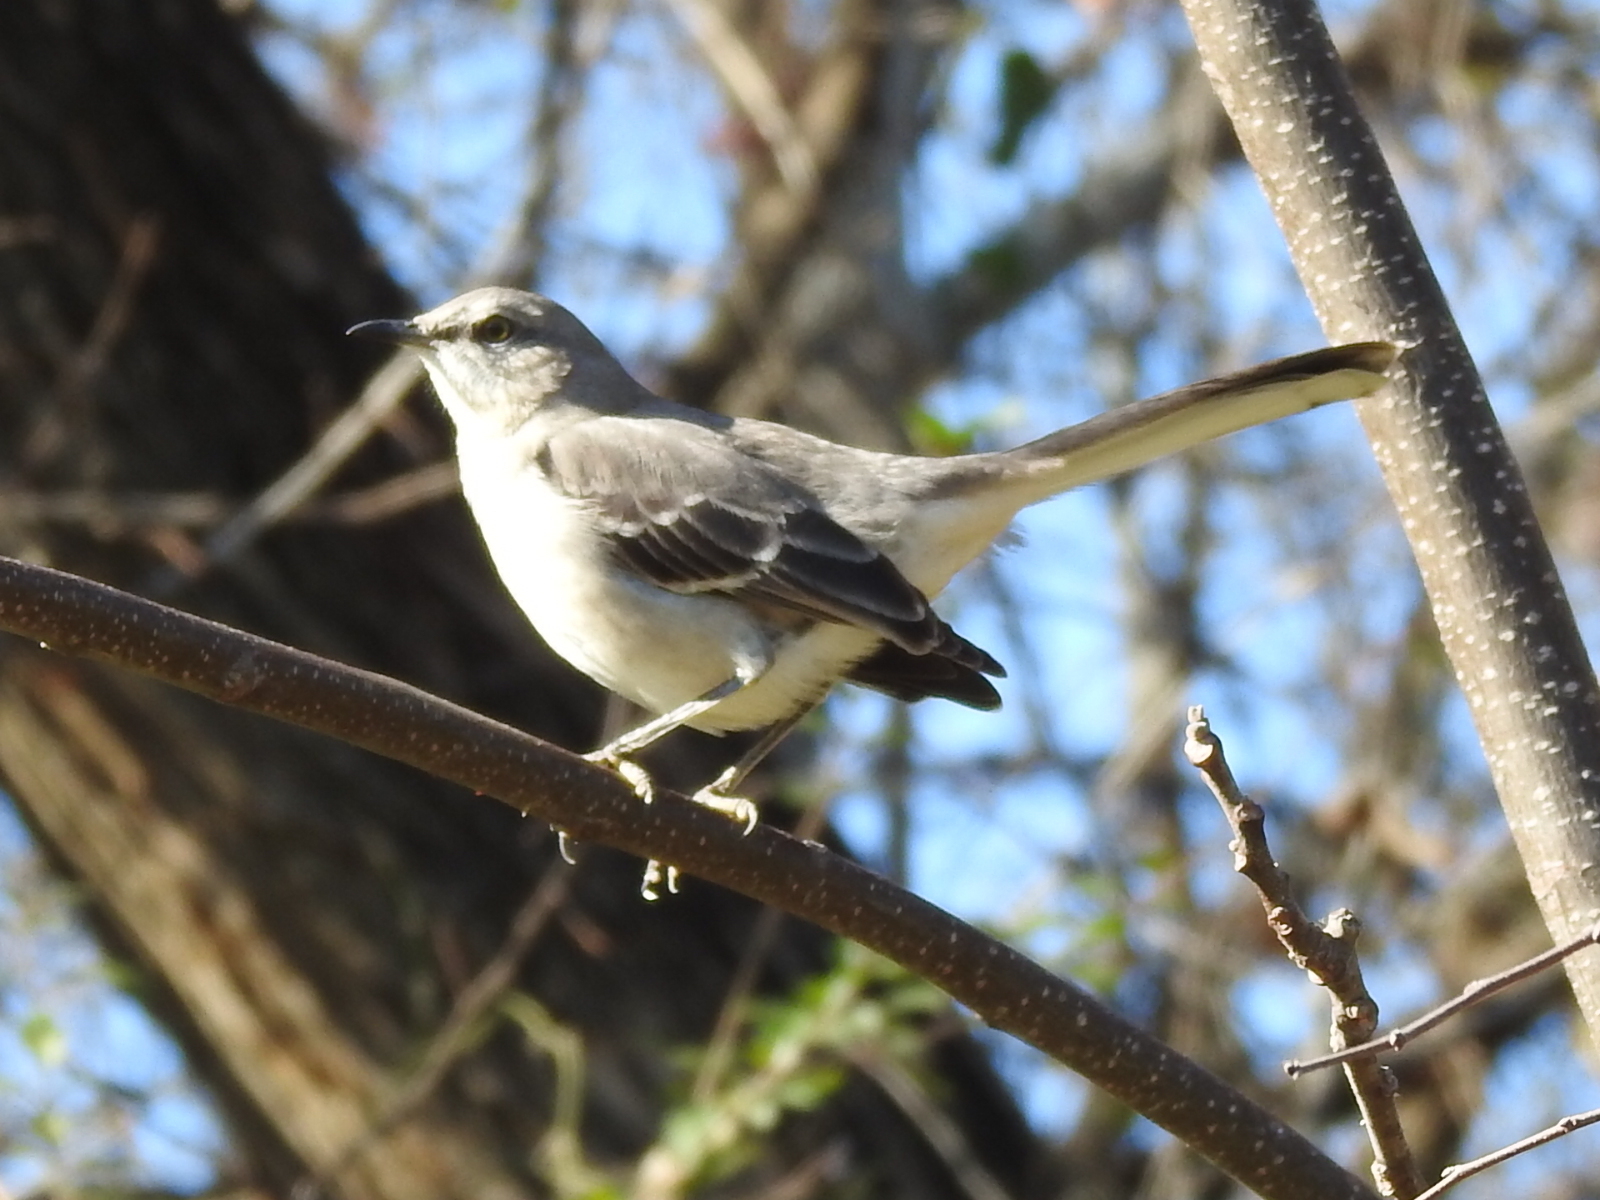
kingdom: Animalia
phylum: Chordata
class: Aves
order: Passeriformes
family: Mimidae
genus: Mimus
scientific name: Mimus polyglottos
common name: Northern mockingbird
